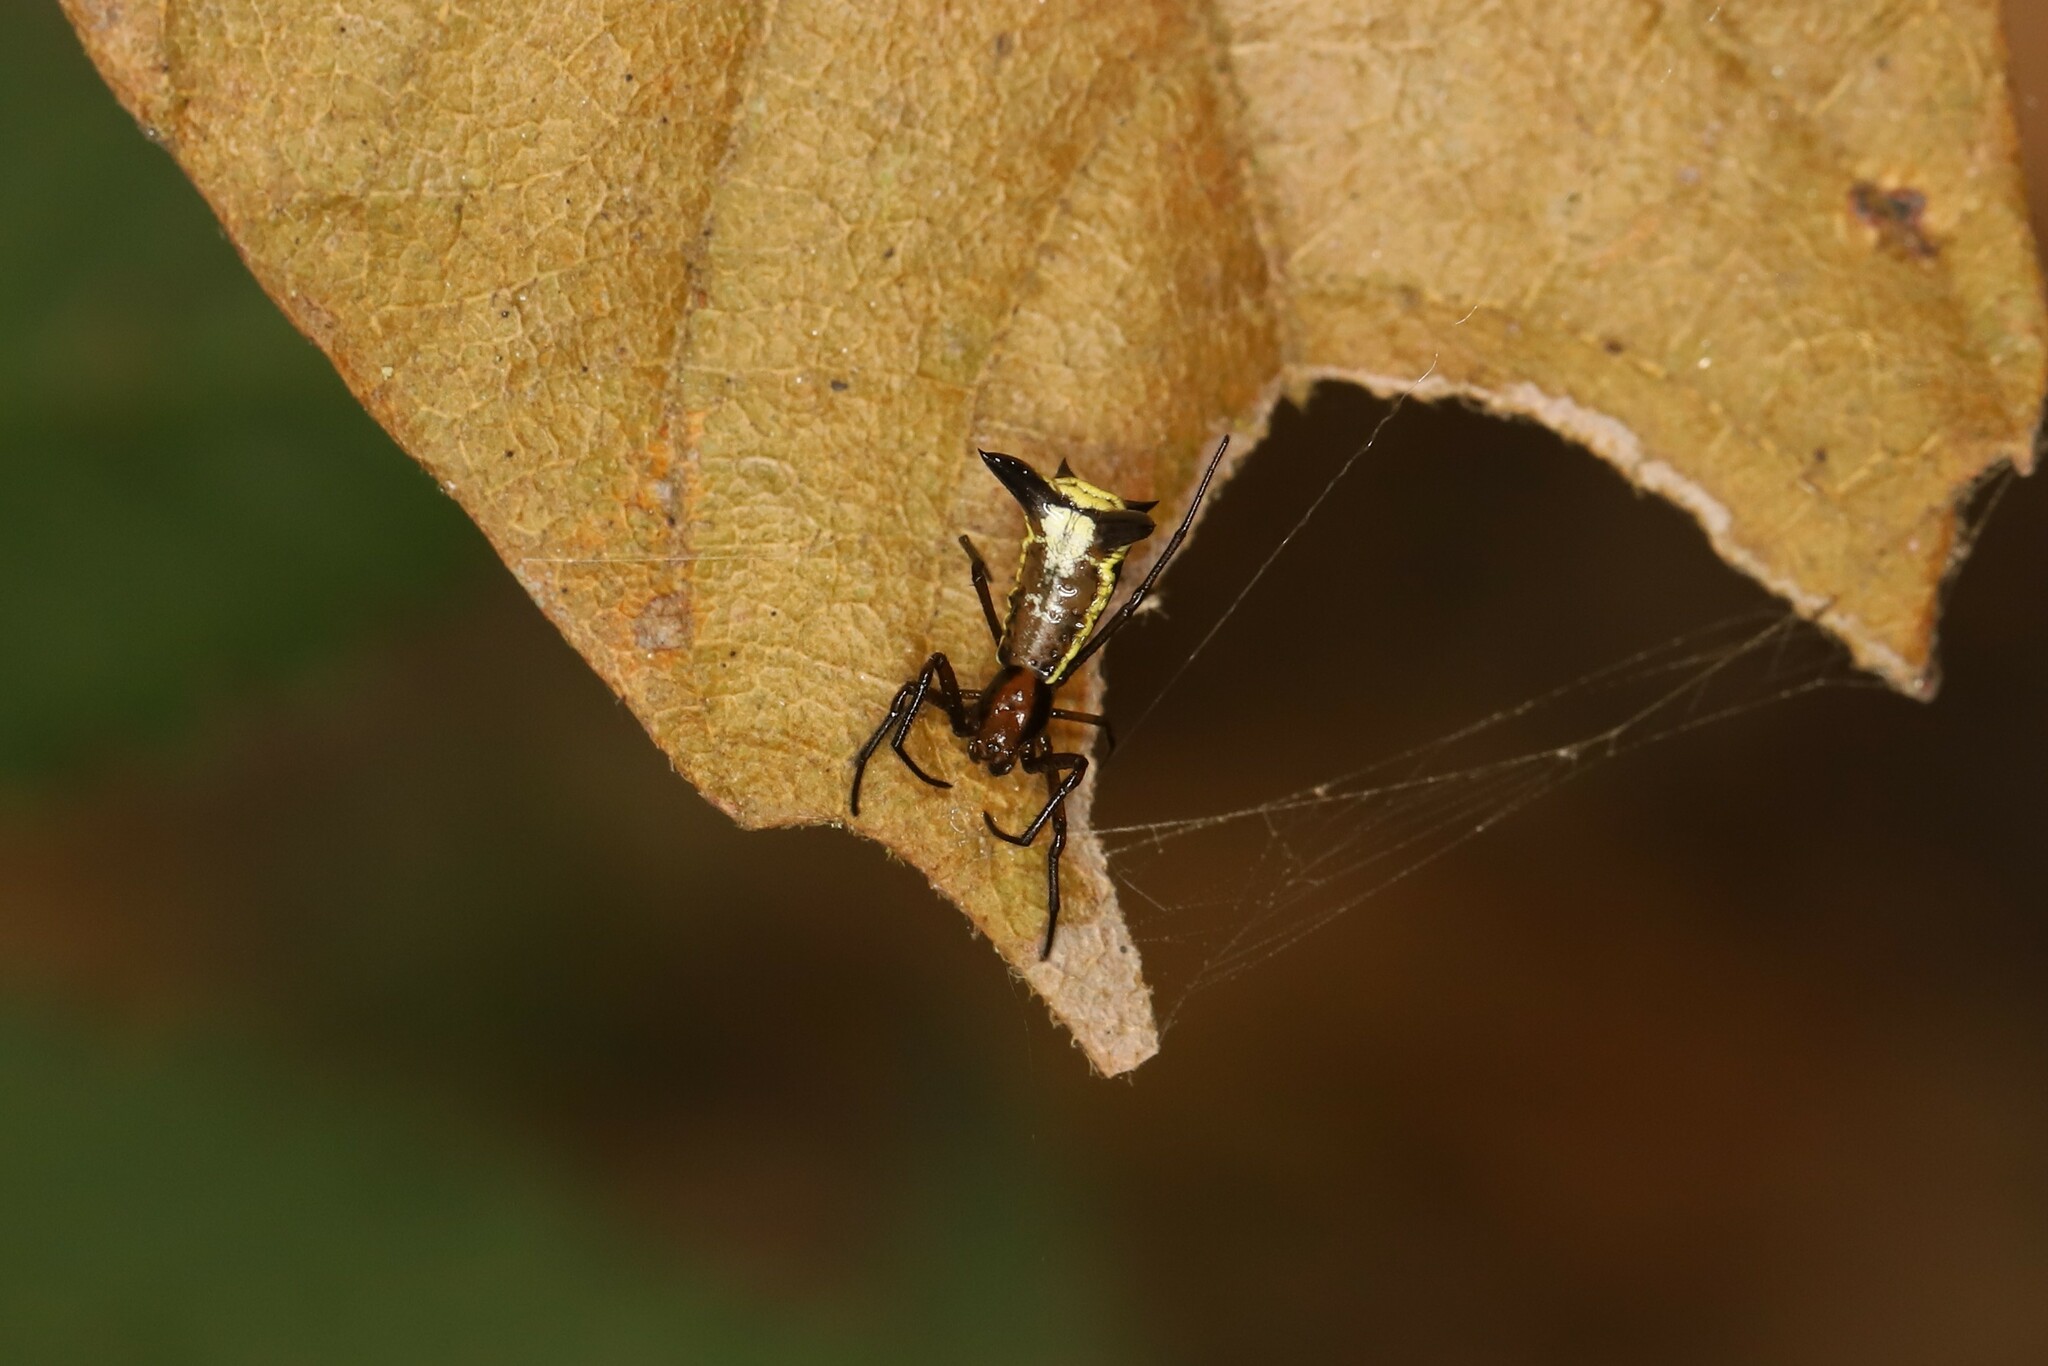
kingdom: Animalia
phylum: Arthropoda
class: Arachnida
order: Araneae
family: Araneidae
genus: Micrathena
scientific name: Micrathena kochalkai
